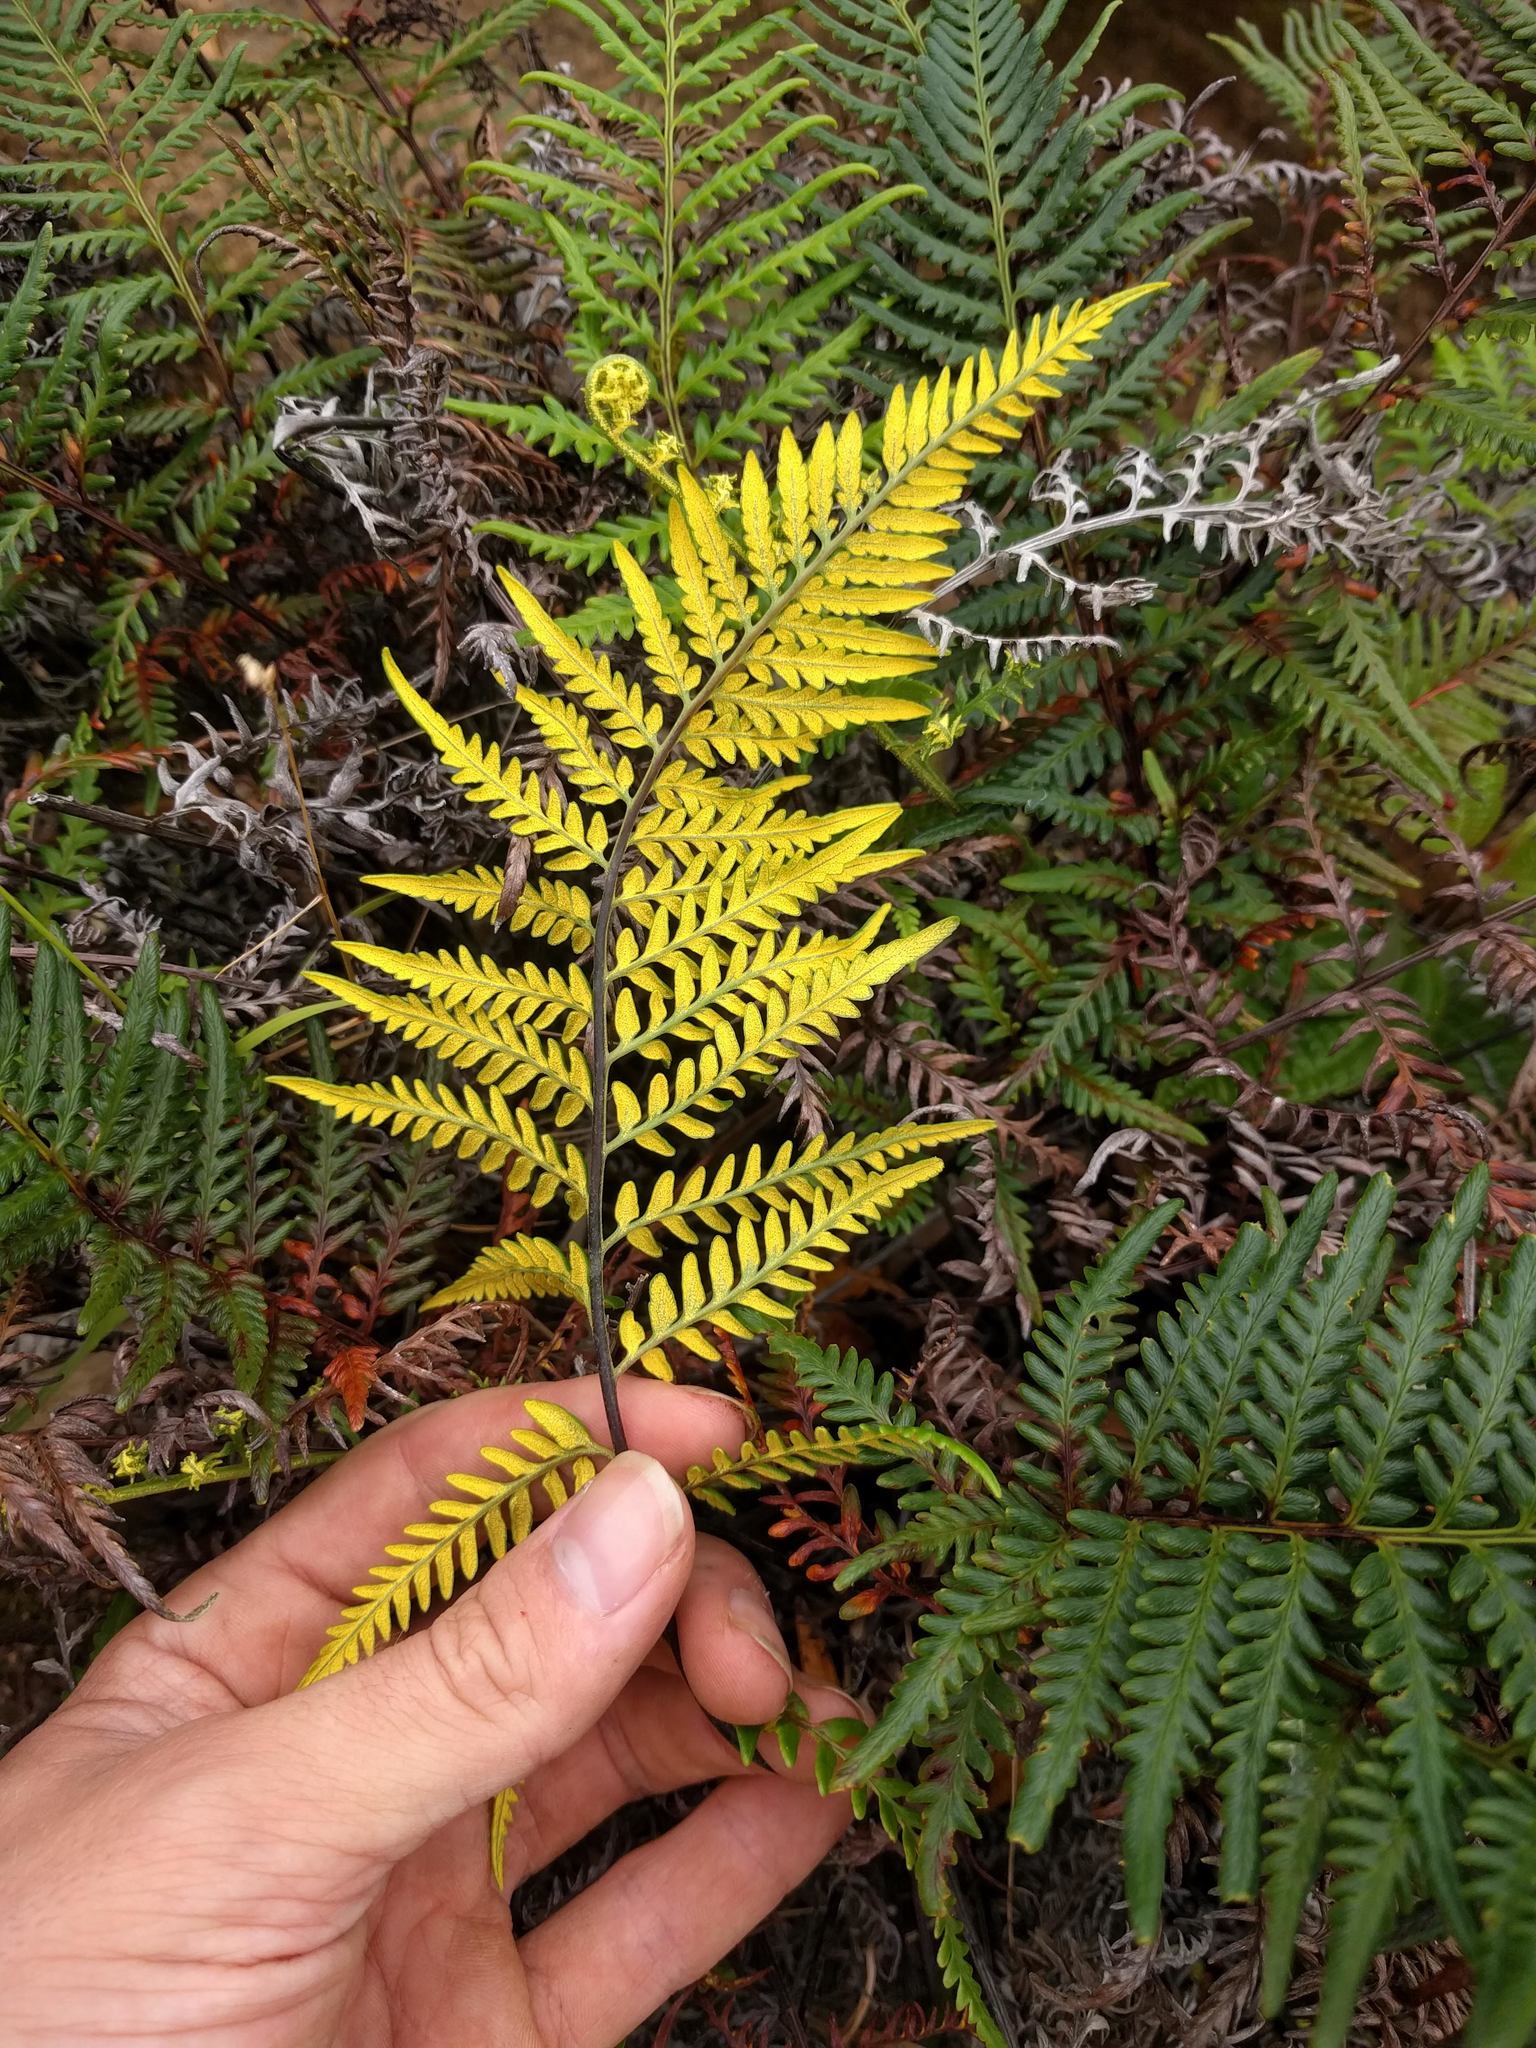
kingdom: Plantae
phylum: Tracheophyta
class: Polypodiopsida
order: Polypodiales
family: Pteridaceae
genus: Pityrogramma
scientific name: Pityrogramma austroamericana
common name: Leatherleaf goldback fern
